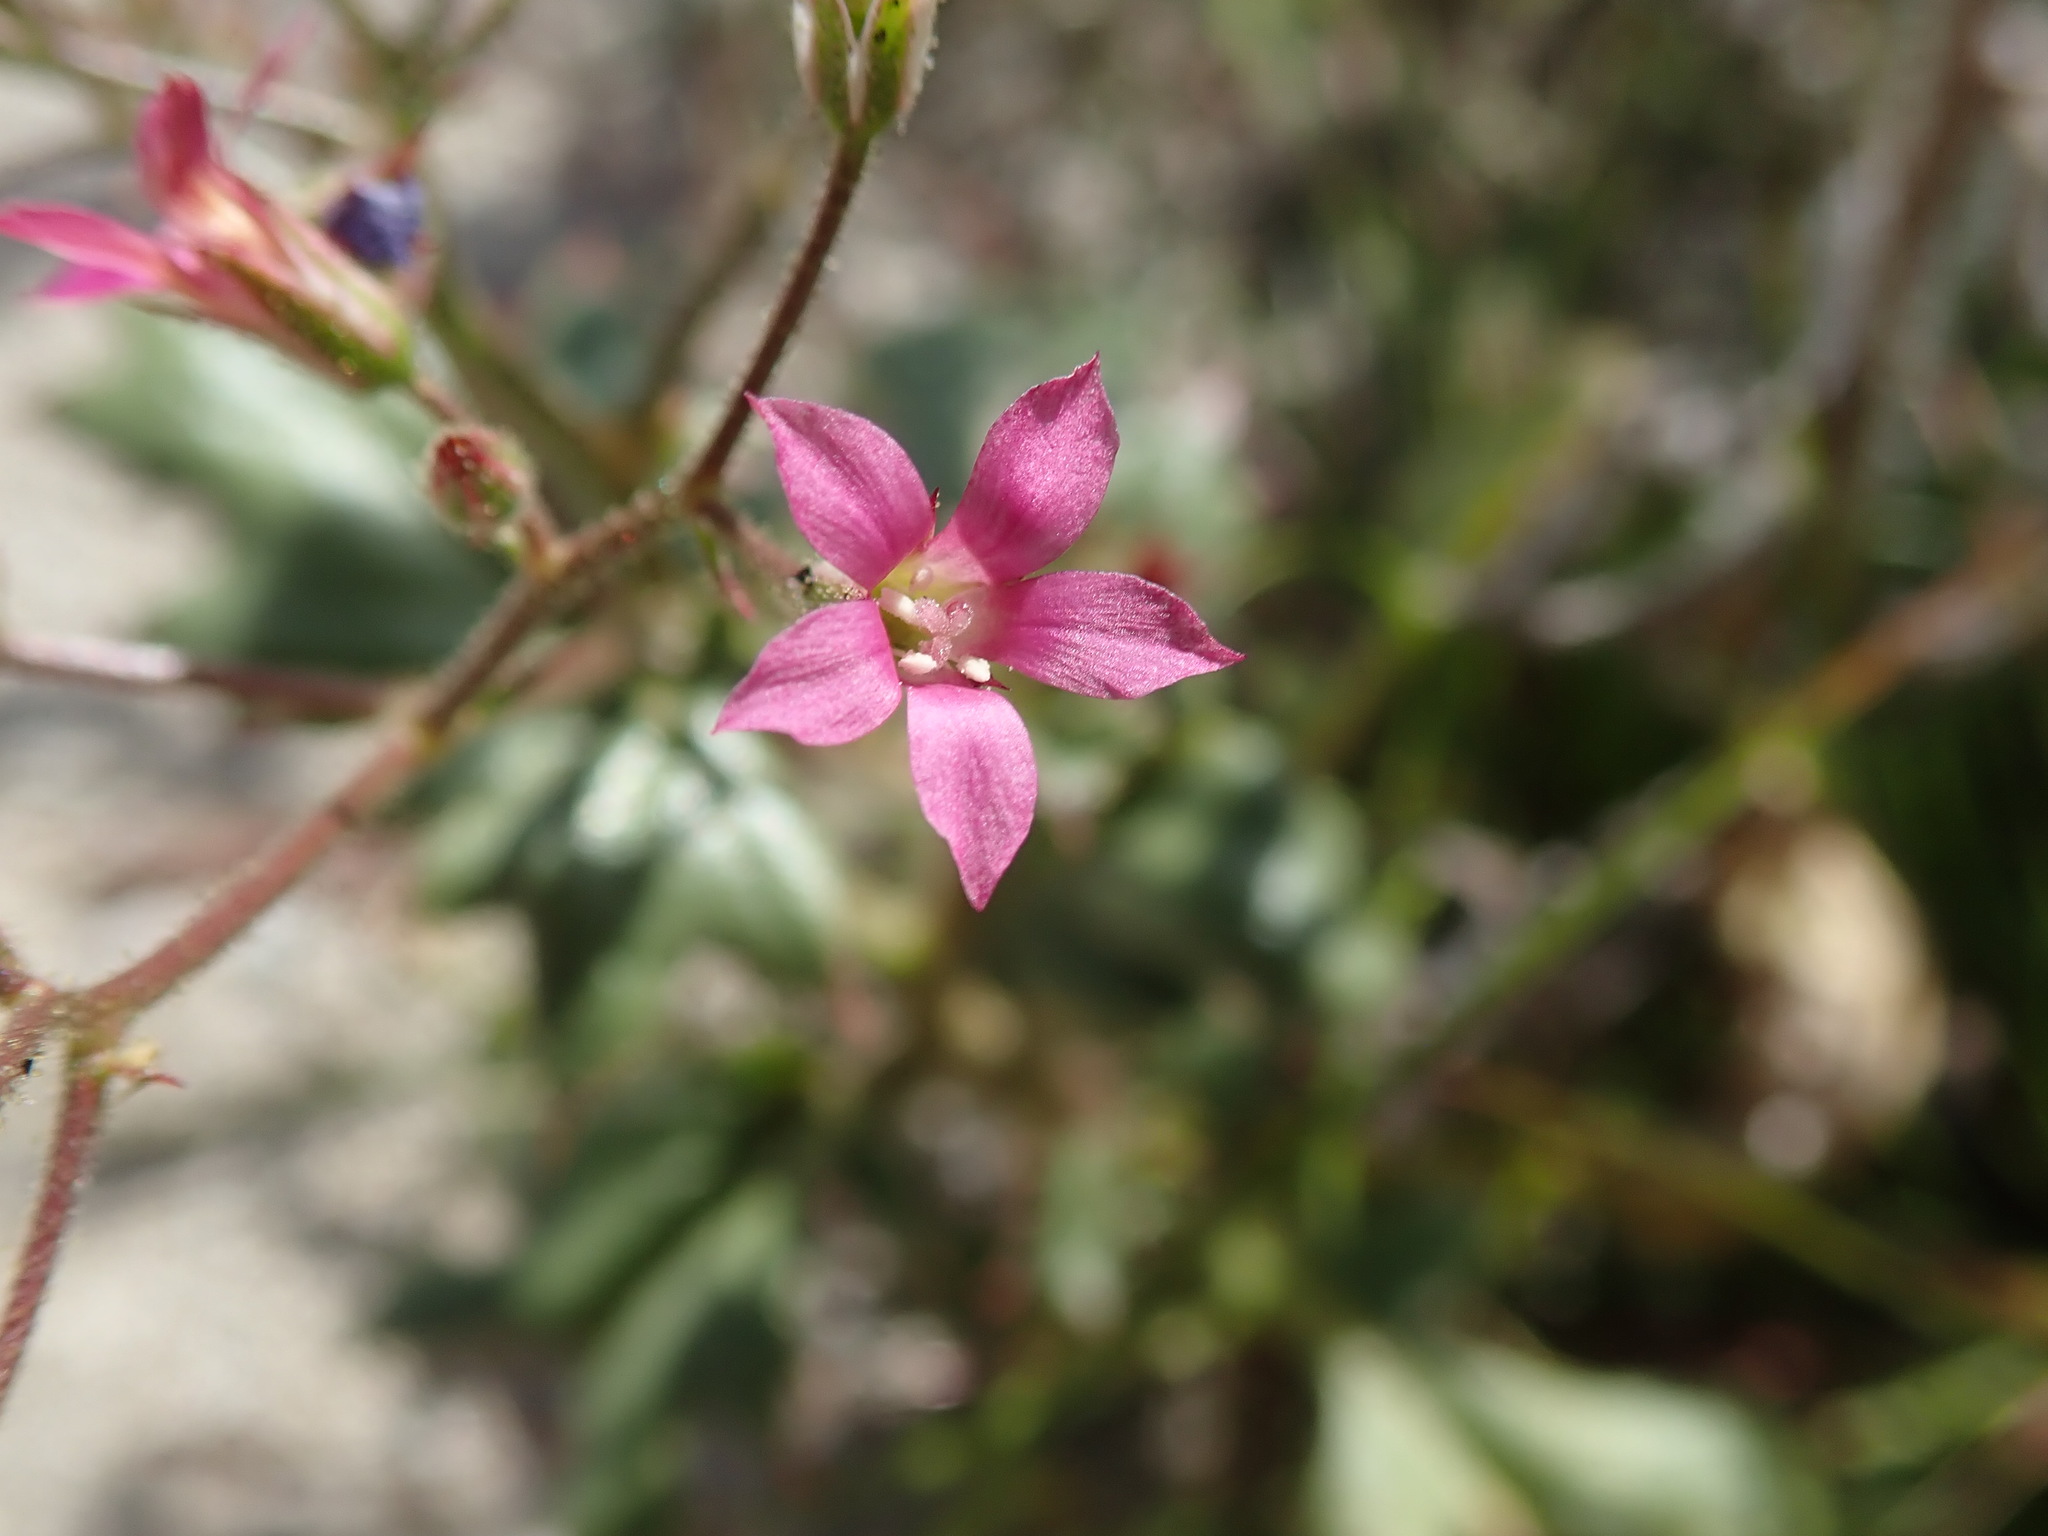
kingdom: Plantae
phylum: Tracheophyta
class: Magnoliopsida
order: Ericales
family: Polemoniaceae
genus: Aliciella
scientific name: Aliciella latifolia
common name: Broad-leaf gilia
